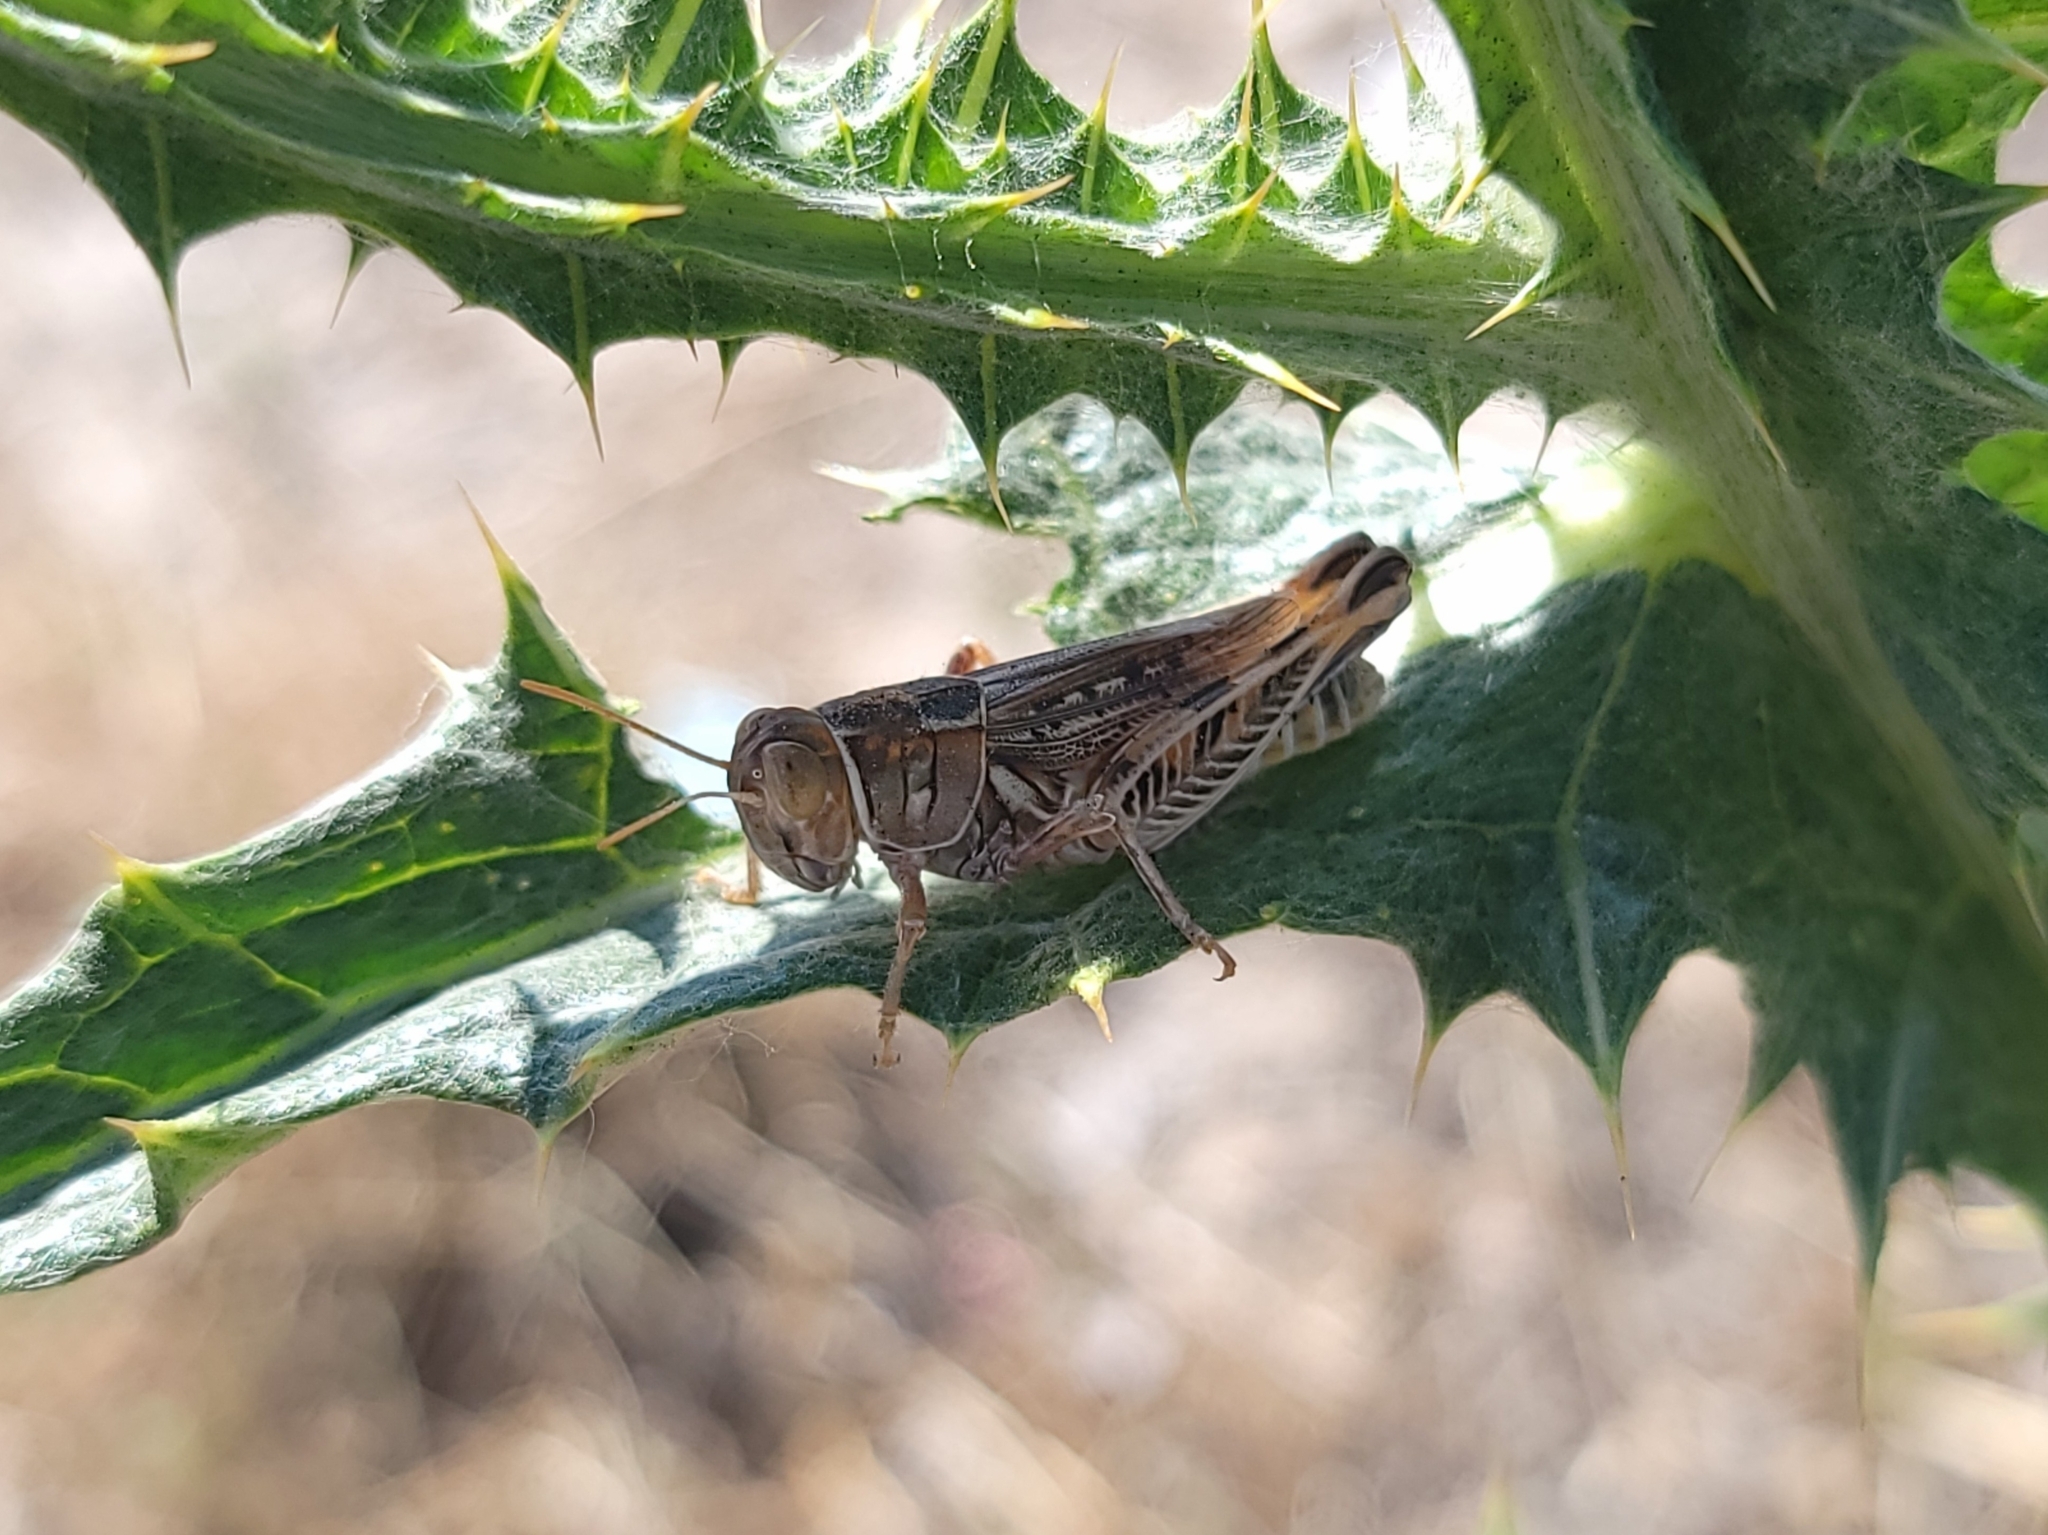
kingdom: Animalia
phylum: Arthropoda
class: Insecta
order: Orthoptera
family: Acrididae
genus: Oedaleonotus
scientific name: Oedaleonotus enigma
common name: Valley grasshopper
